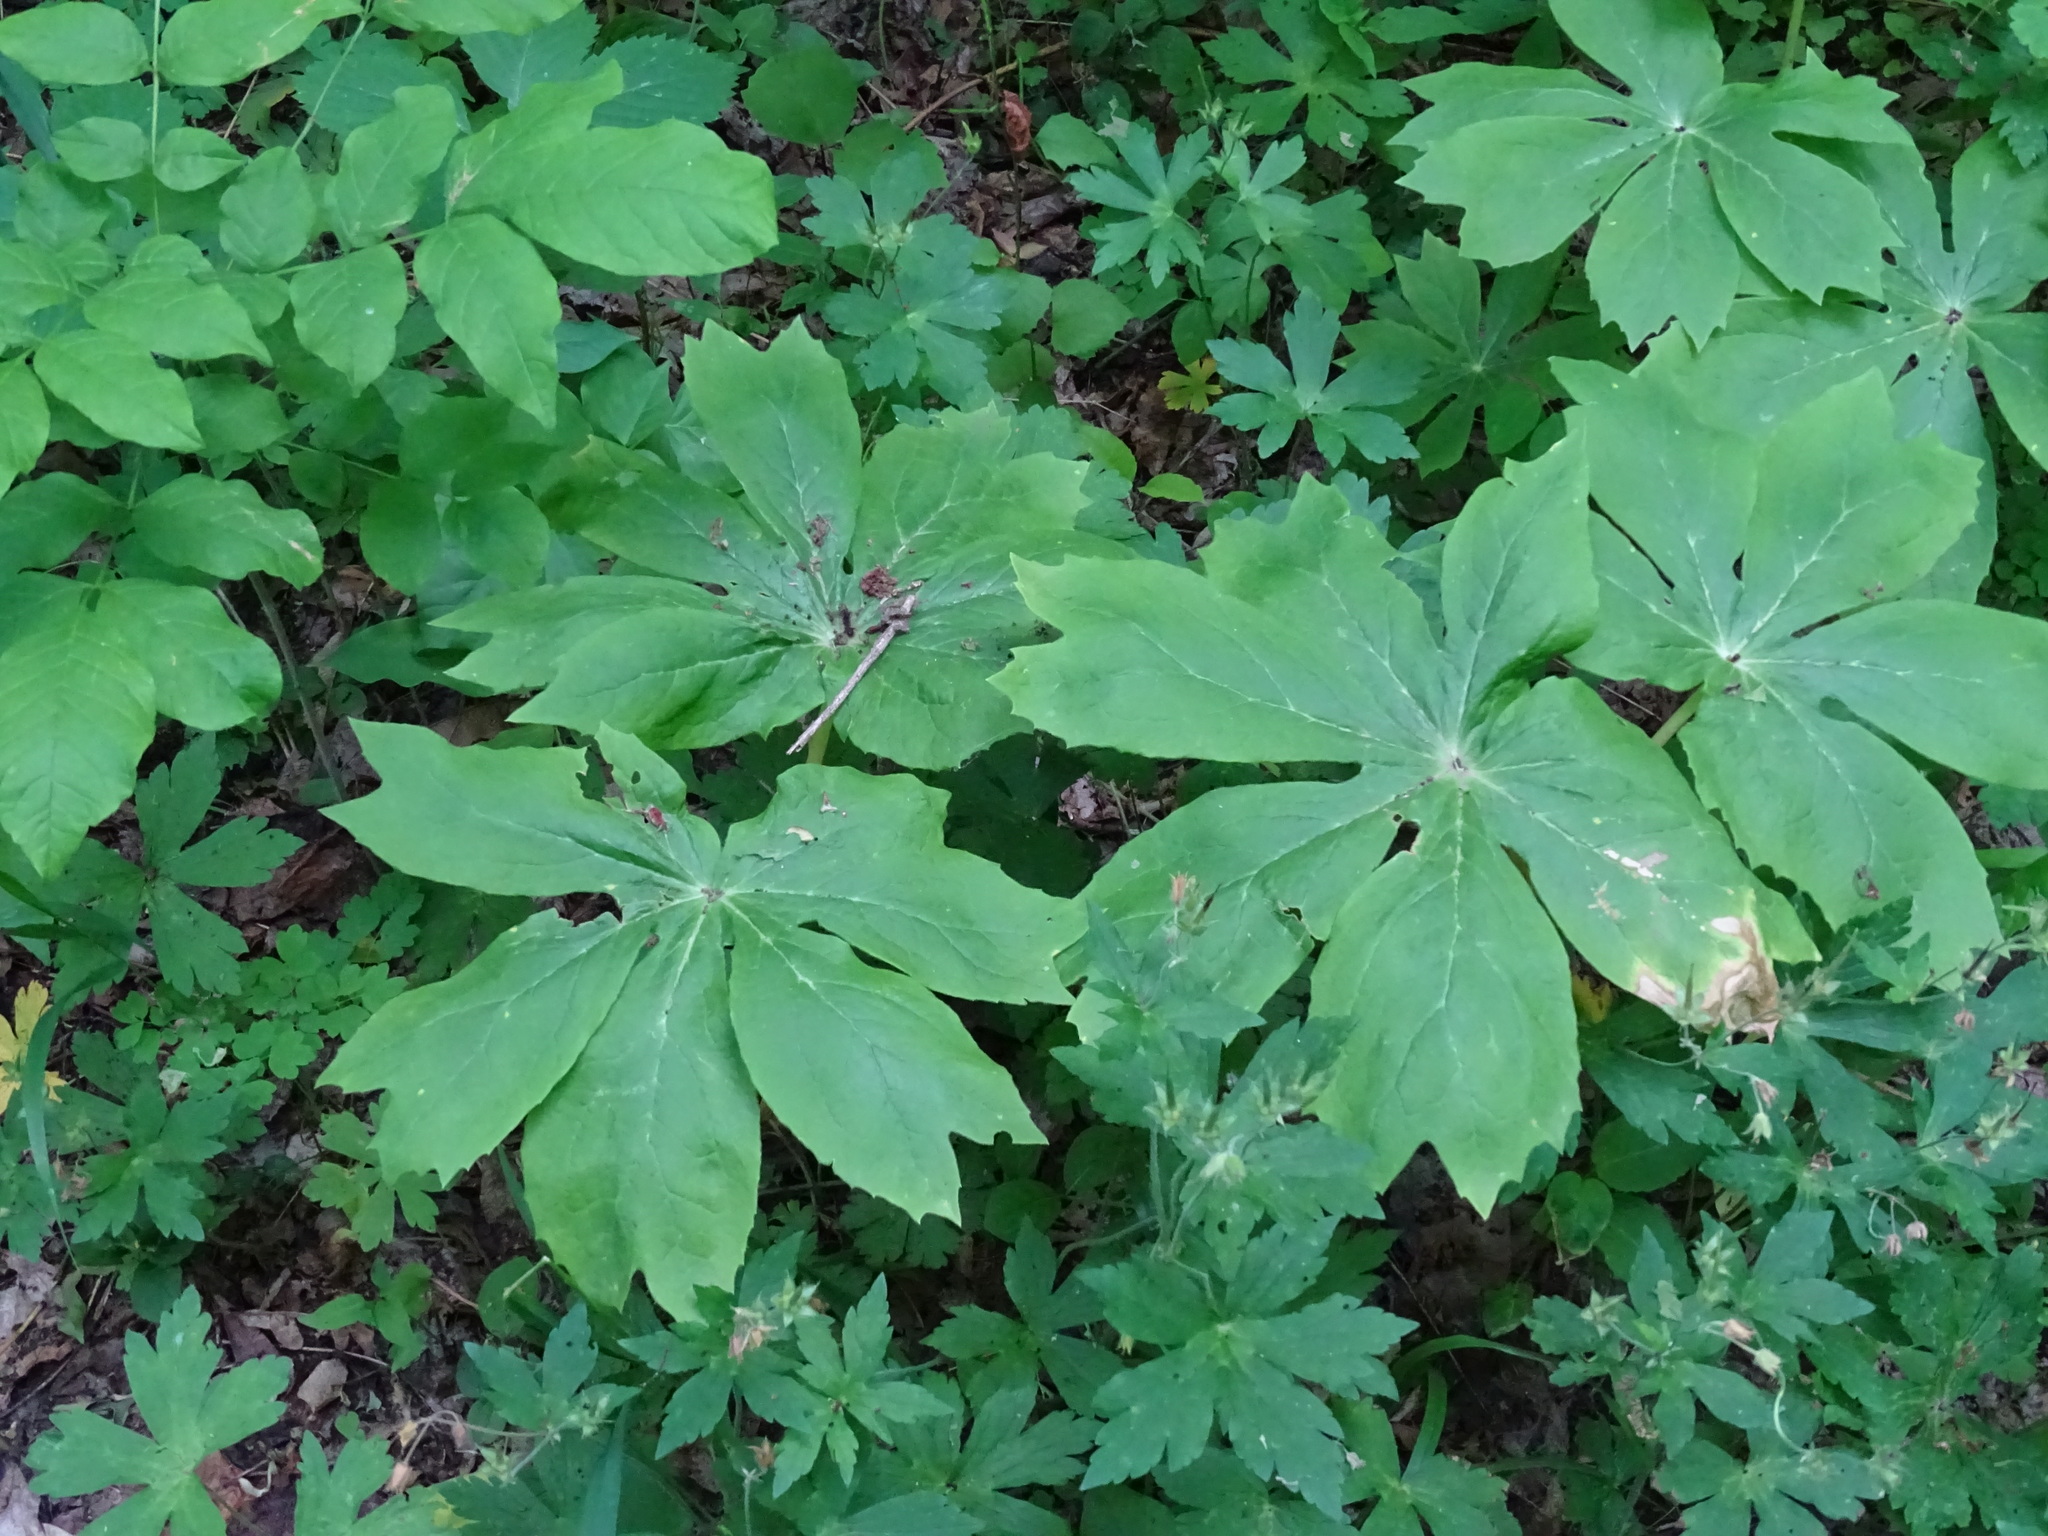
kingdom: Plantae
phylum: Tracheophyta
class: Magnoliopsida
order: Ranunculales
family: Berberidaceae
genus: Podophyllum
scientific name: Podophyllum peltatum
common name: Wild mandrake
